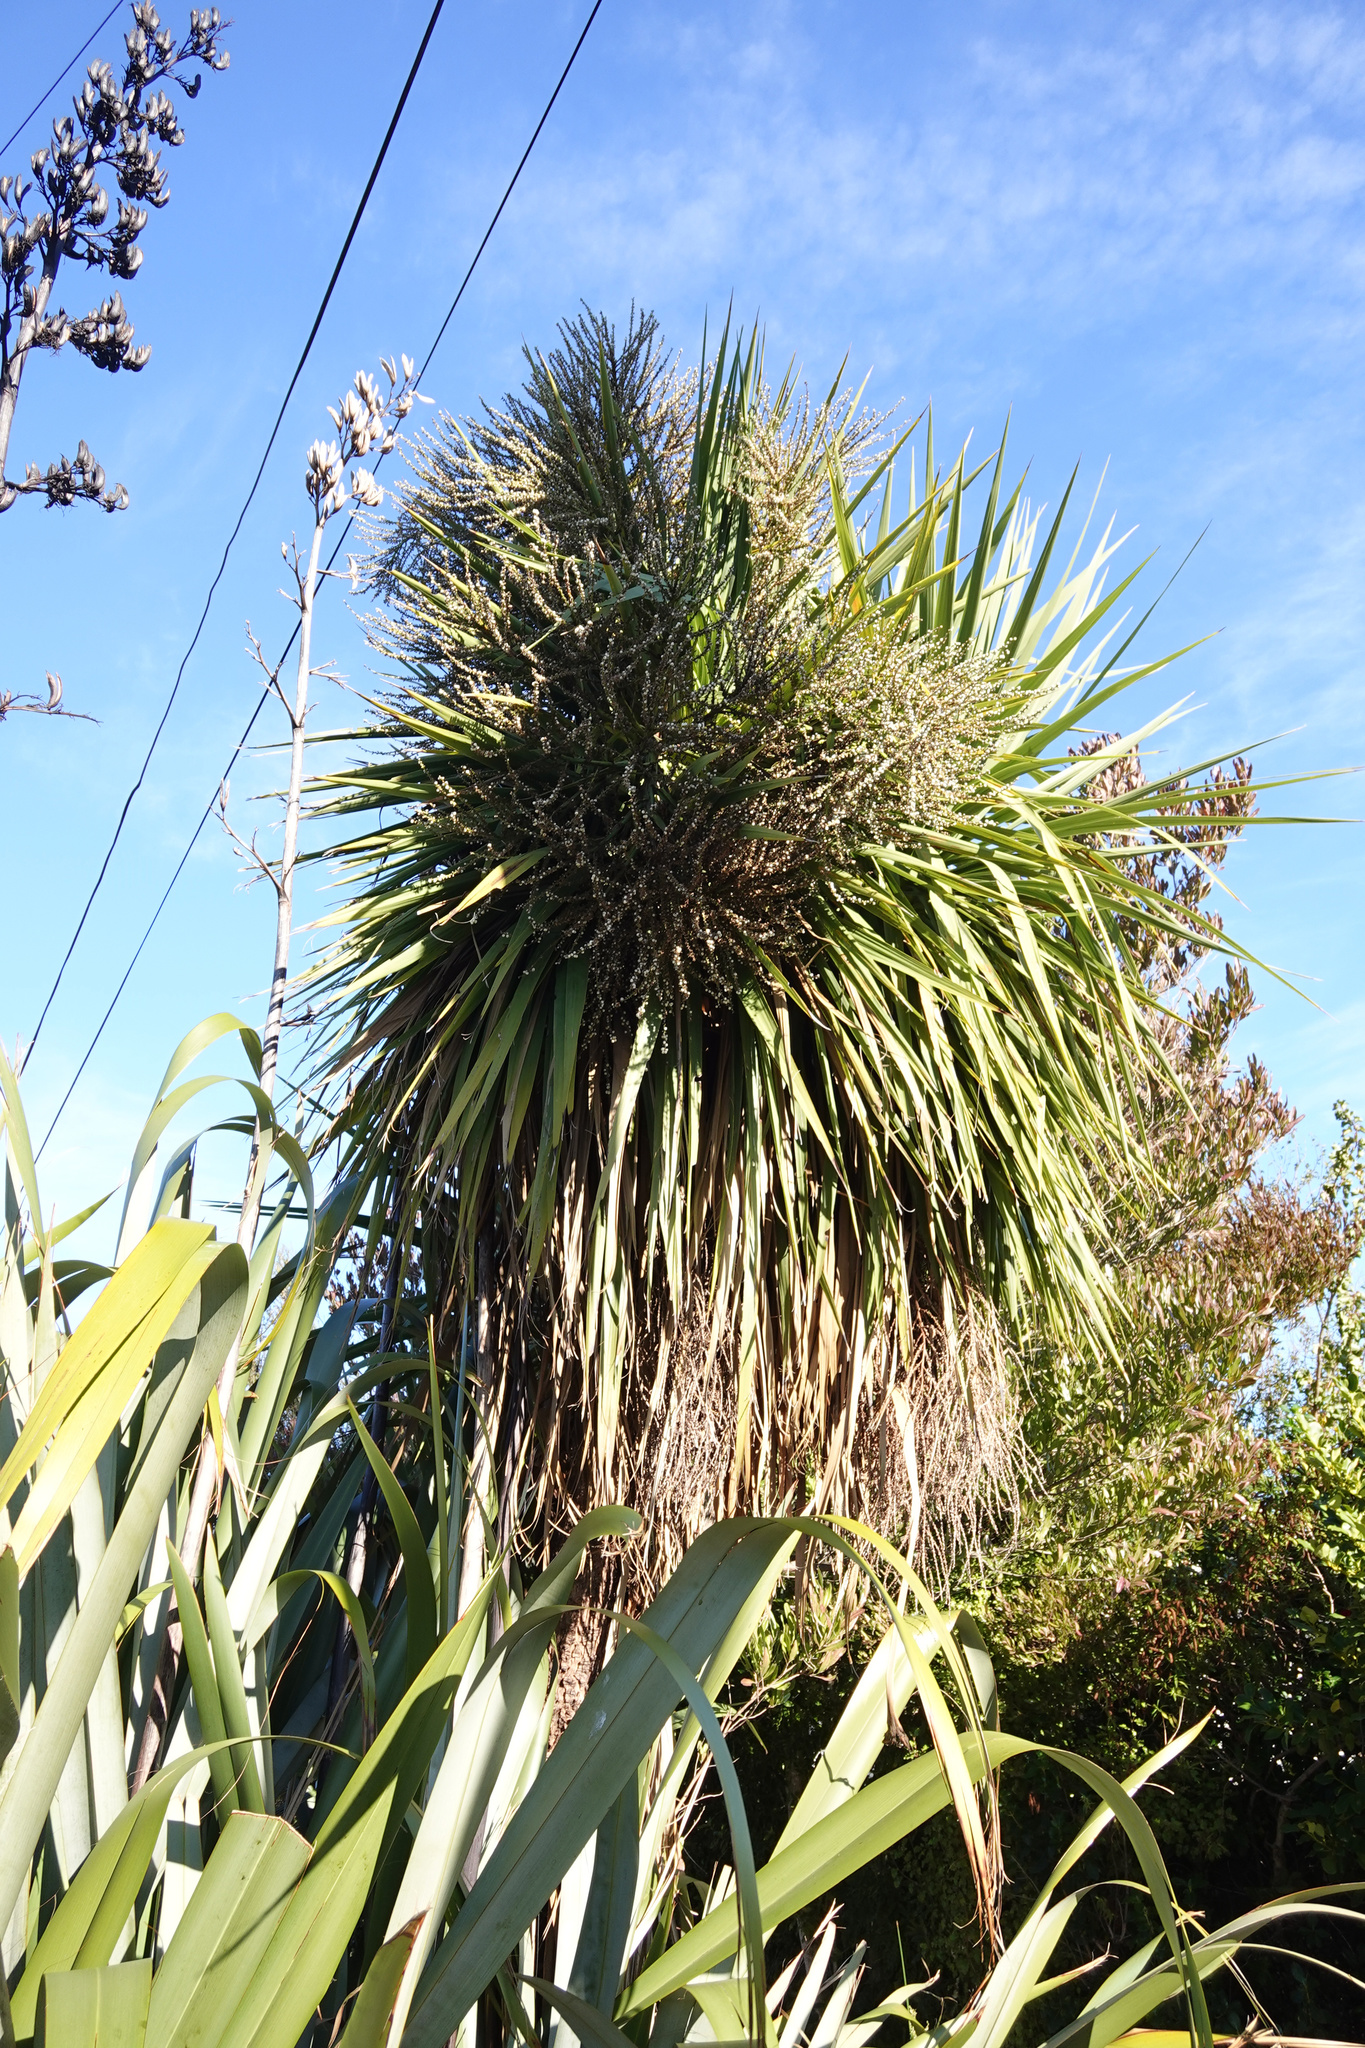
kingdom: Plantae
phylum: Tracheophyta
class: Liliopsida
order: Asparagales
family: Asparagaceae
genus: Cordyline
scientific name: Cordyline australis
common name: Cabbage-palm
